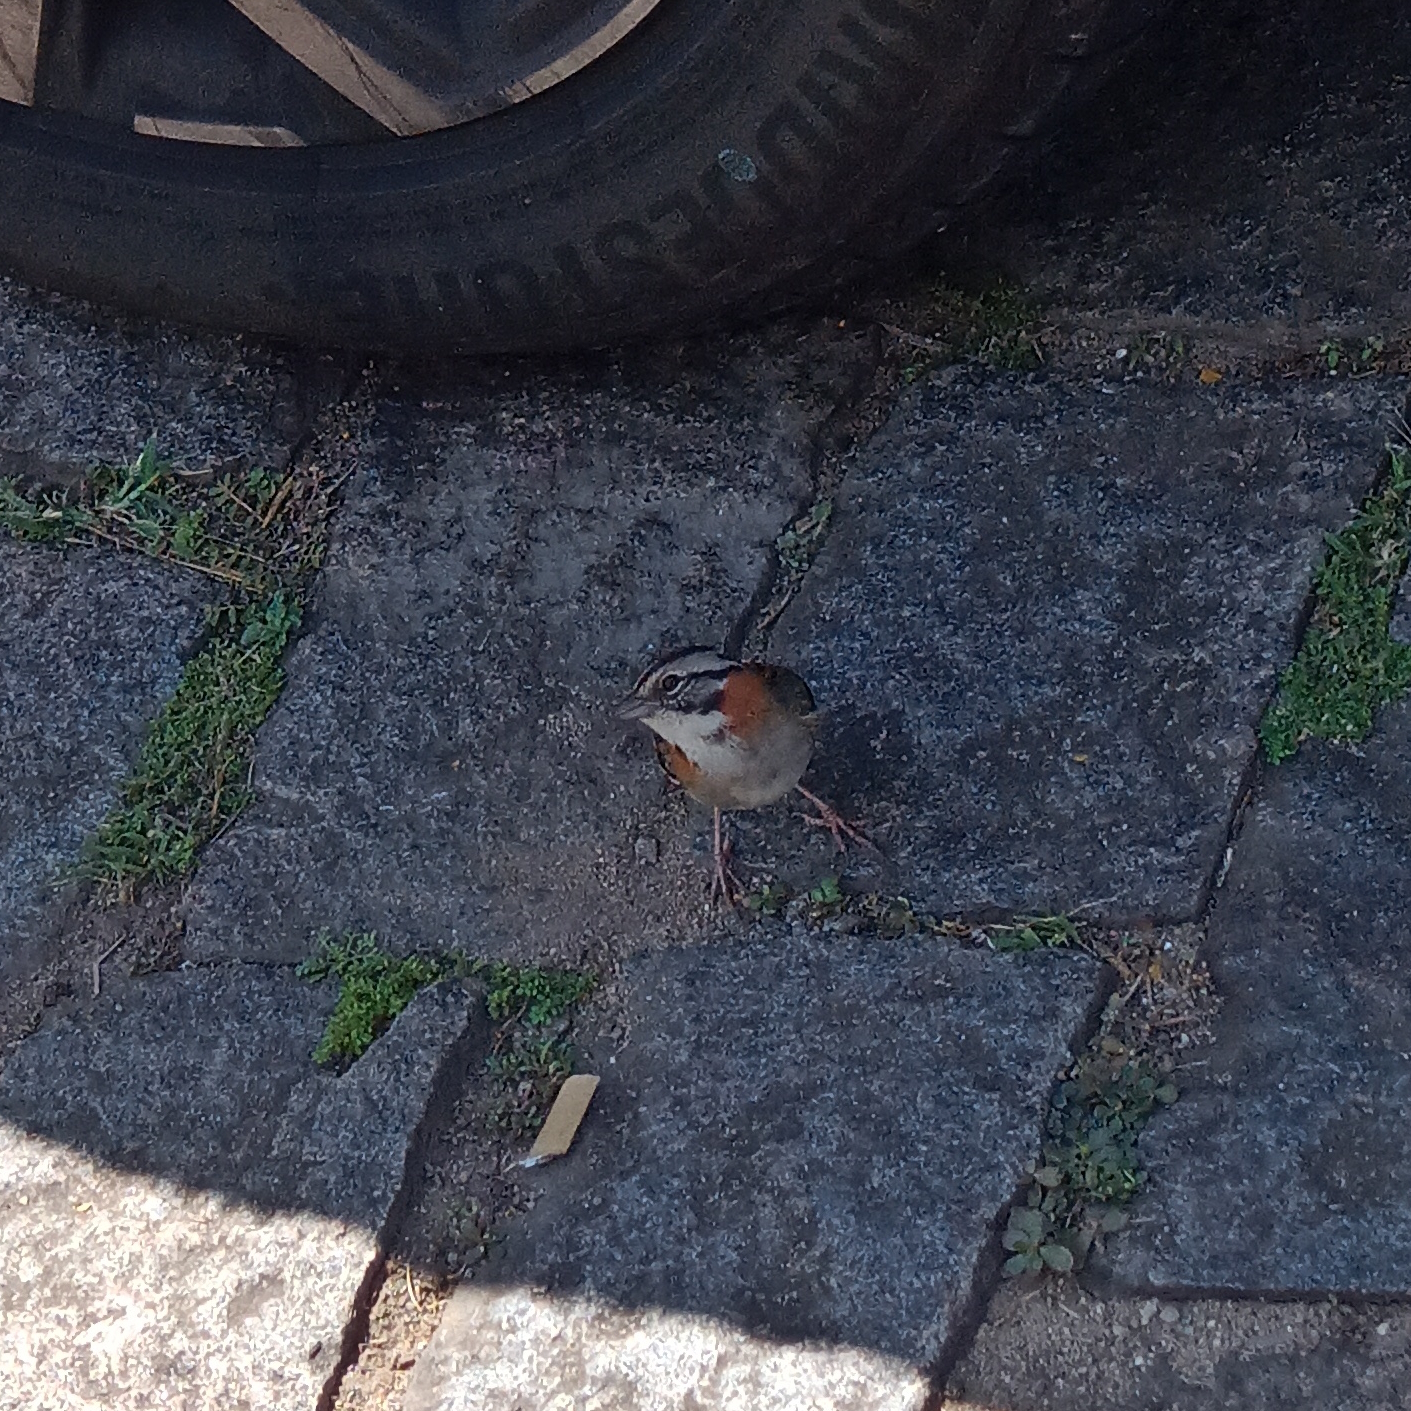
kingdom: Animalia
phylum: Chordata
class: Aves
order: Passeriformes
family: Passerellidae
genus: Zonotrichia
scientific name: Zonotrichia capensis
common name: Rufous-collared sparrow
